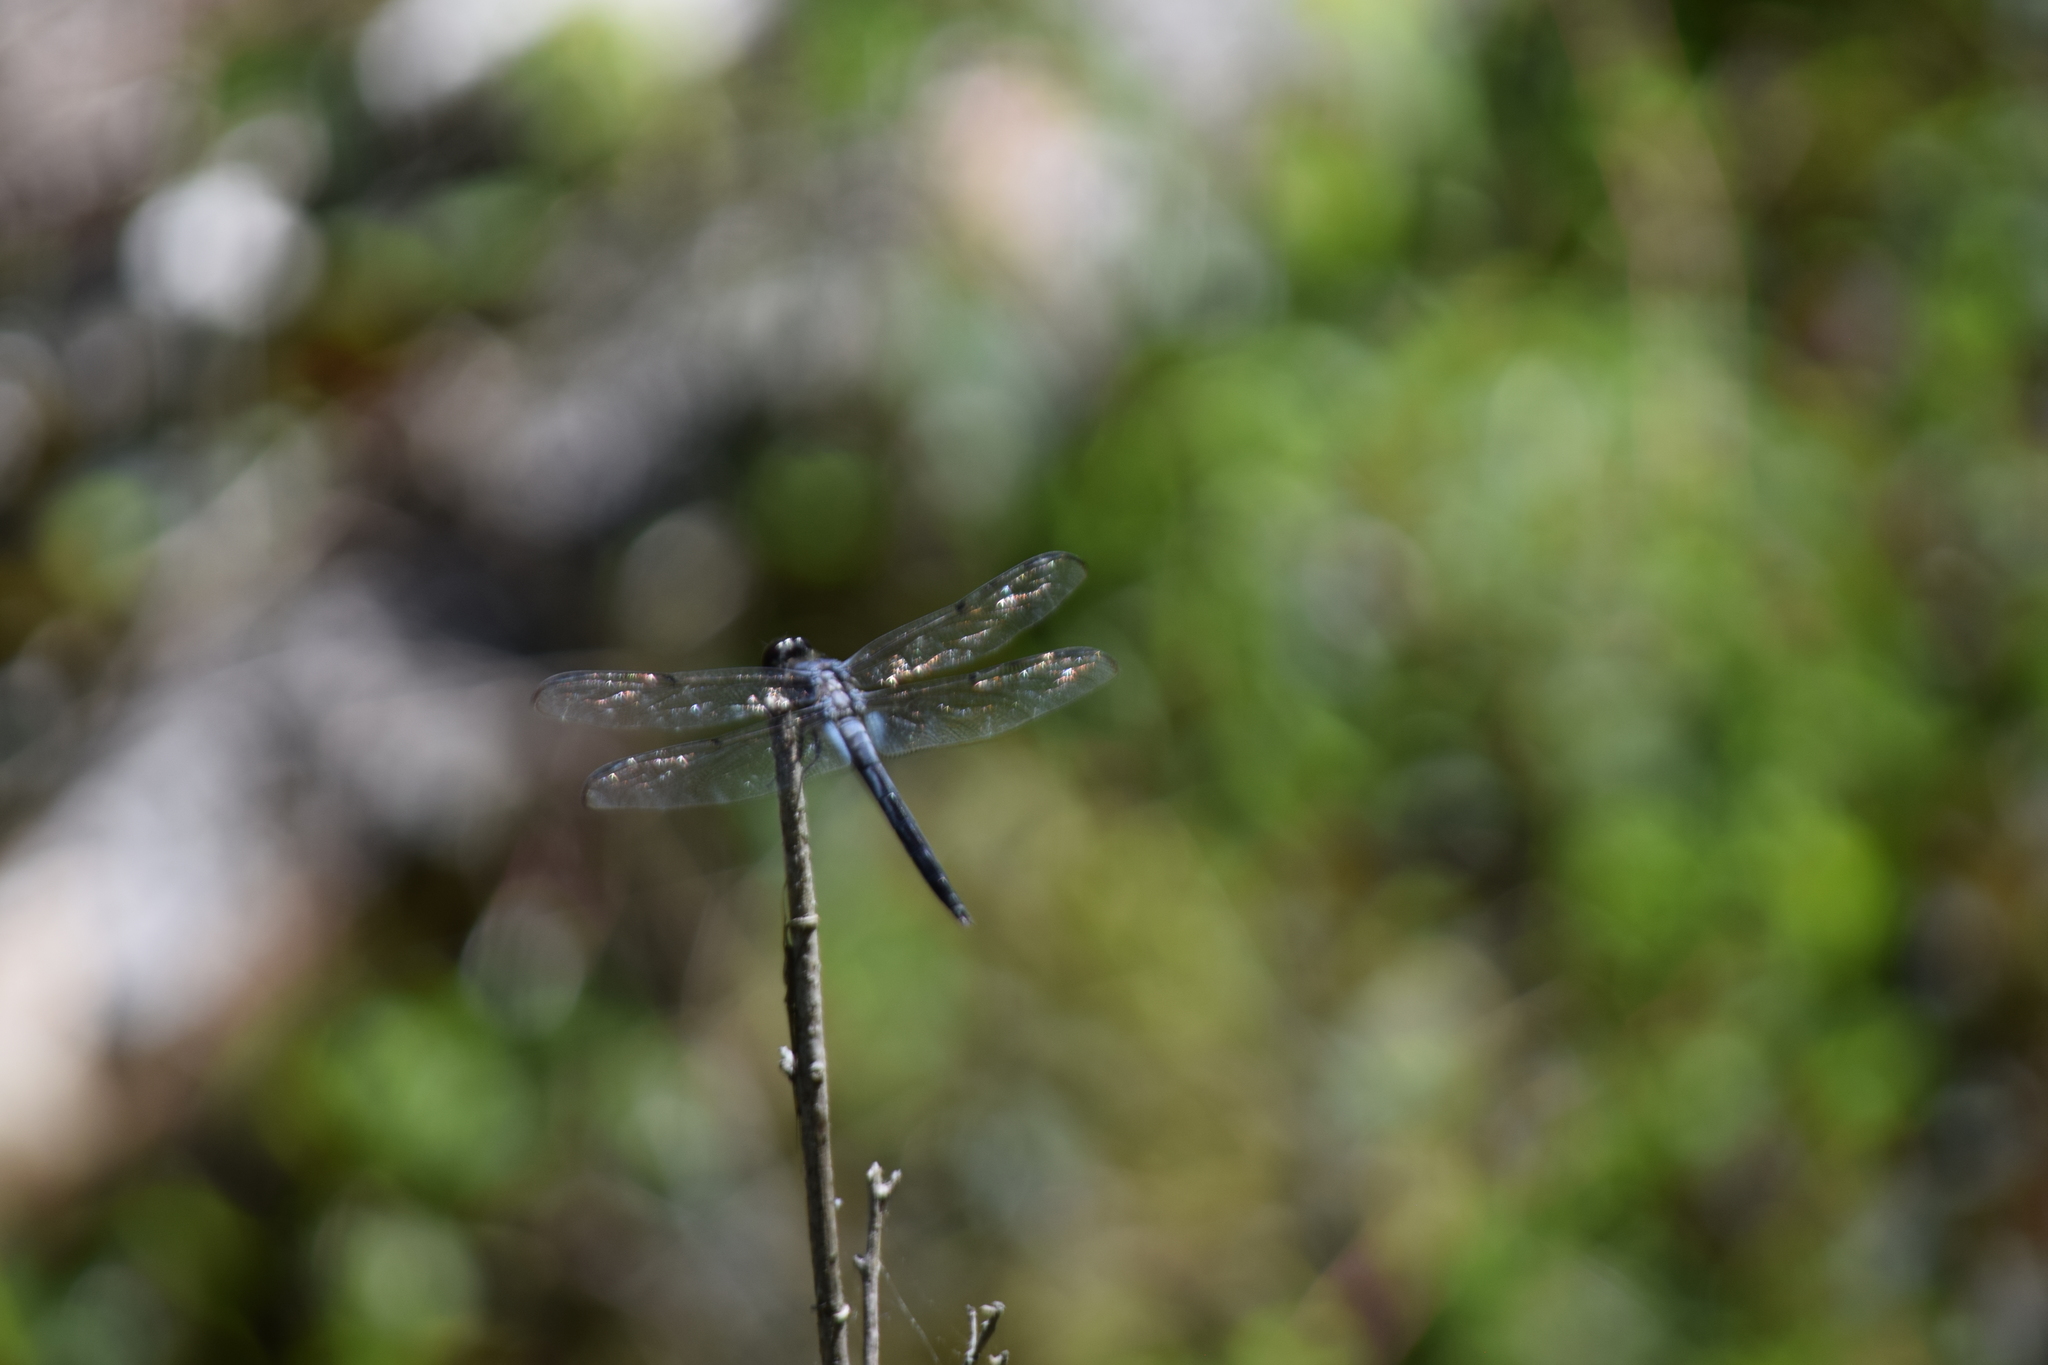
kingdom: Animalia
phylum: Arthropoda
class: Insecta
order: Odonata
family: Libellulidae
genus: Libellula
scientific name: Libellula incesta
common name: Slaty skimmer
